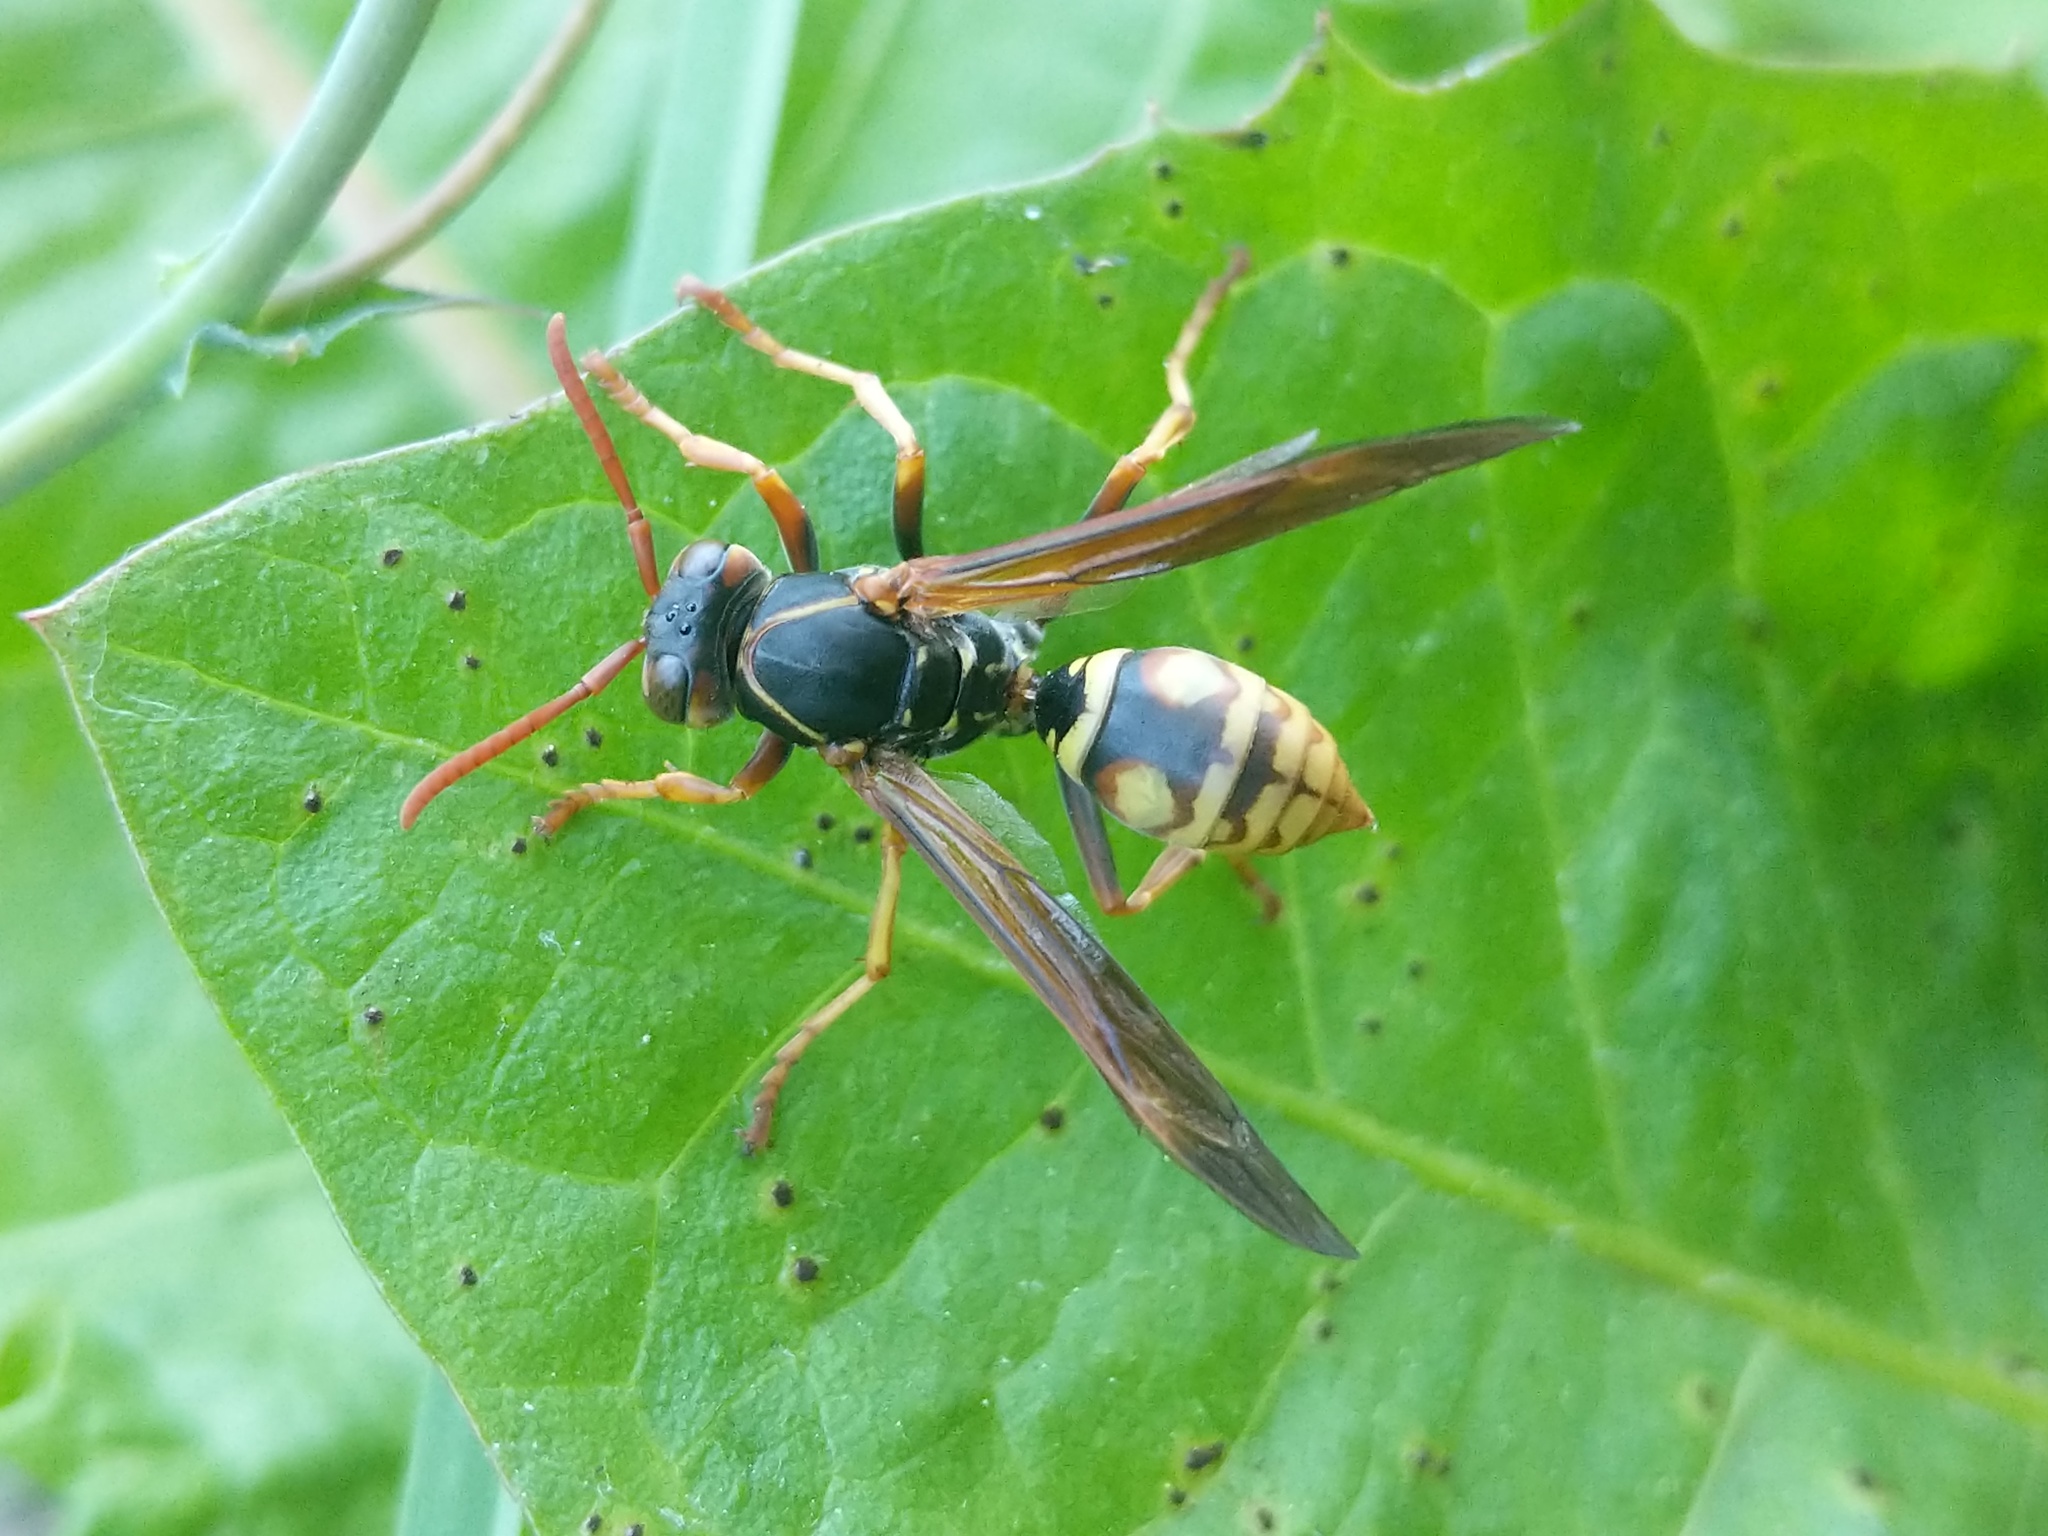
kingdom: Animalia
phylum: Arthropoda
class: Insecta
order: Hymenoptera
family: Eumenidae
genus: Polistes
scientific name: Polistes aurifer
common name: Paper wasp
